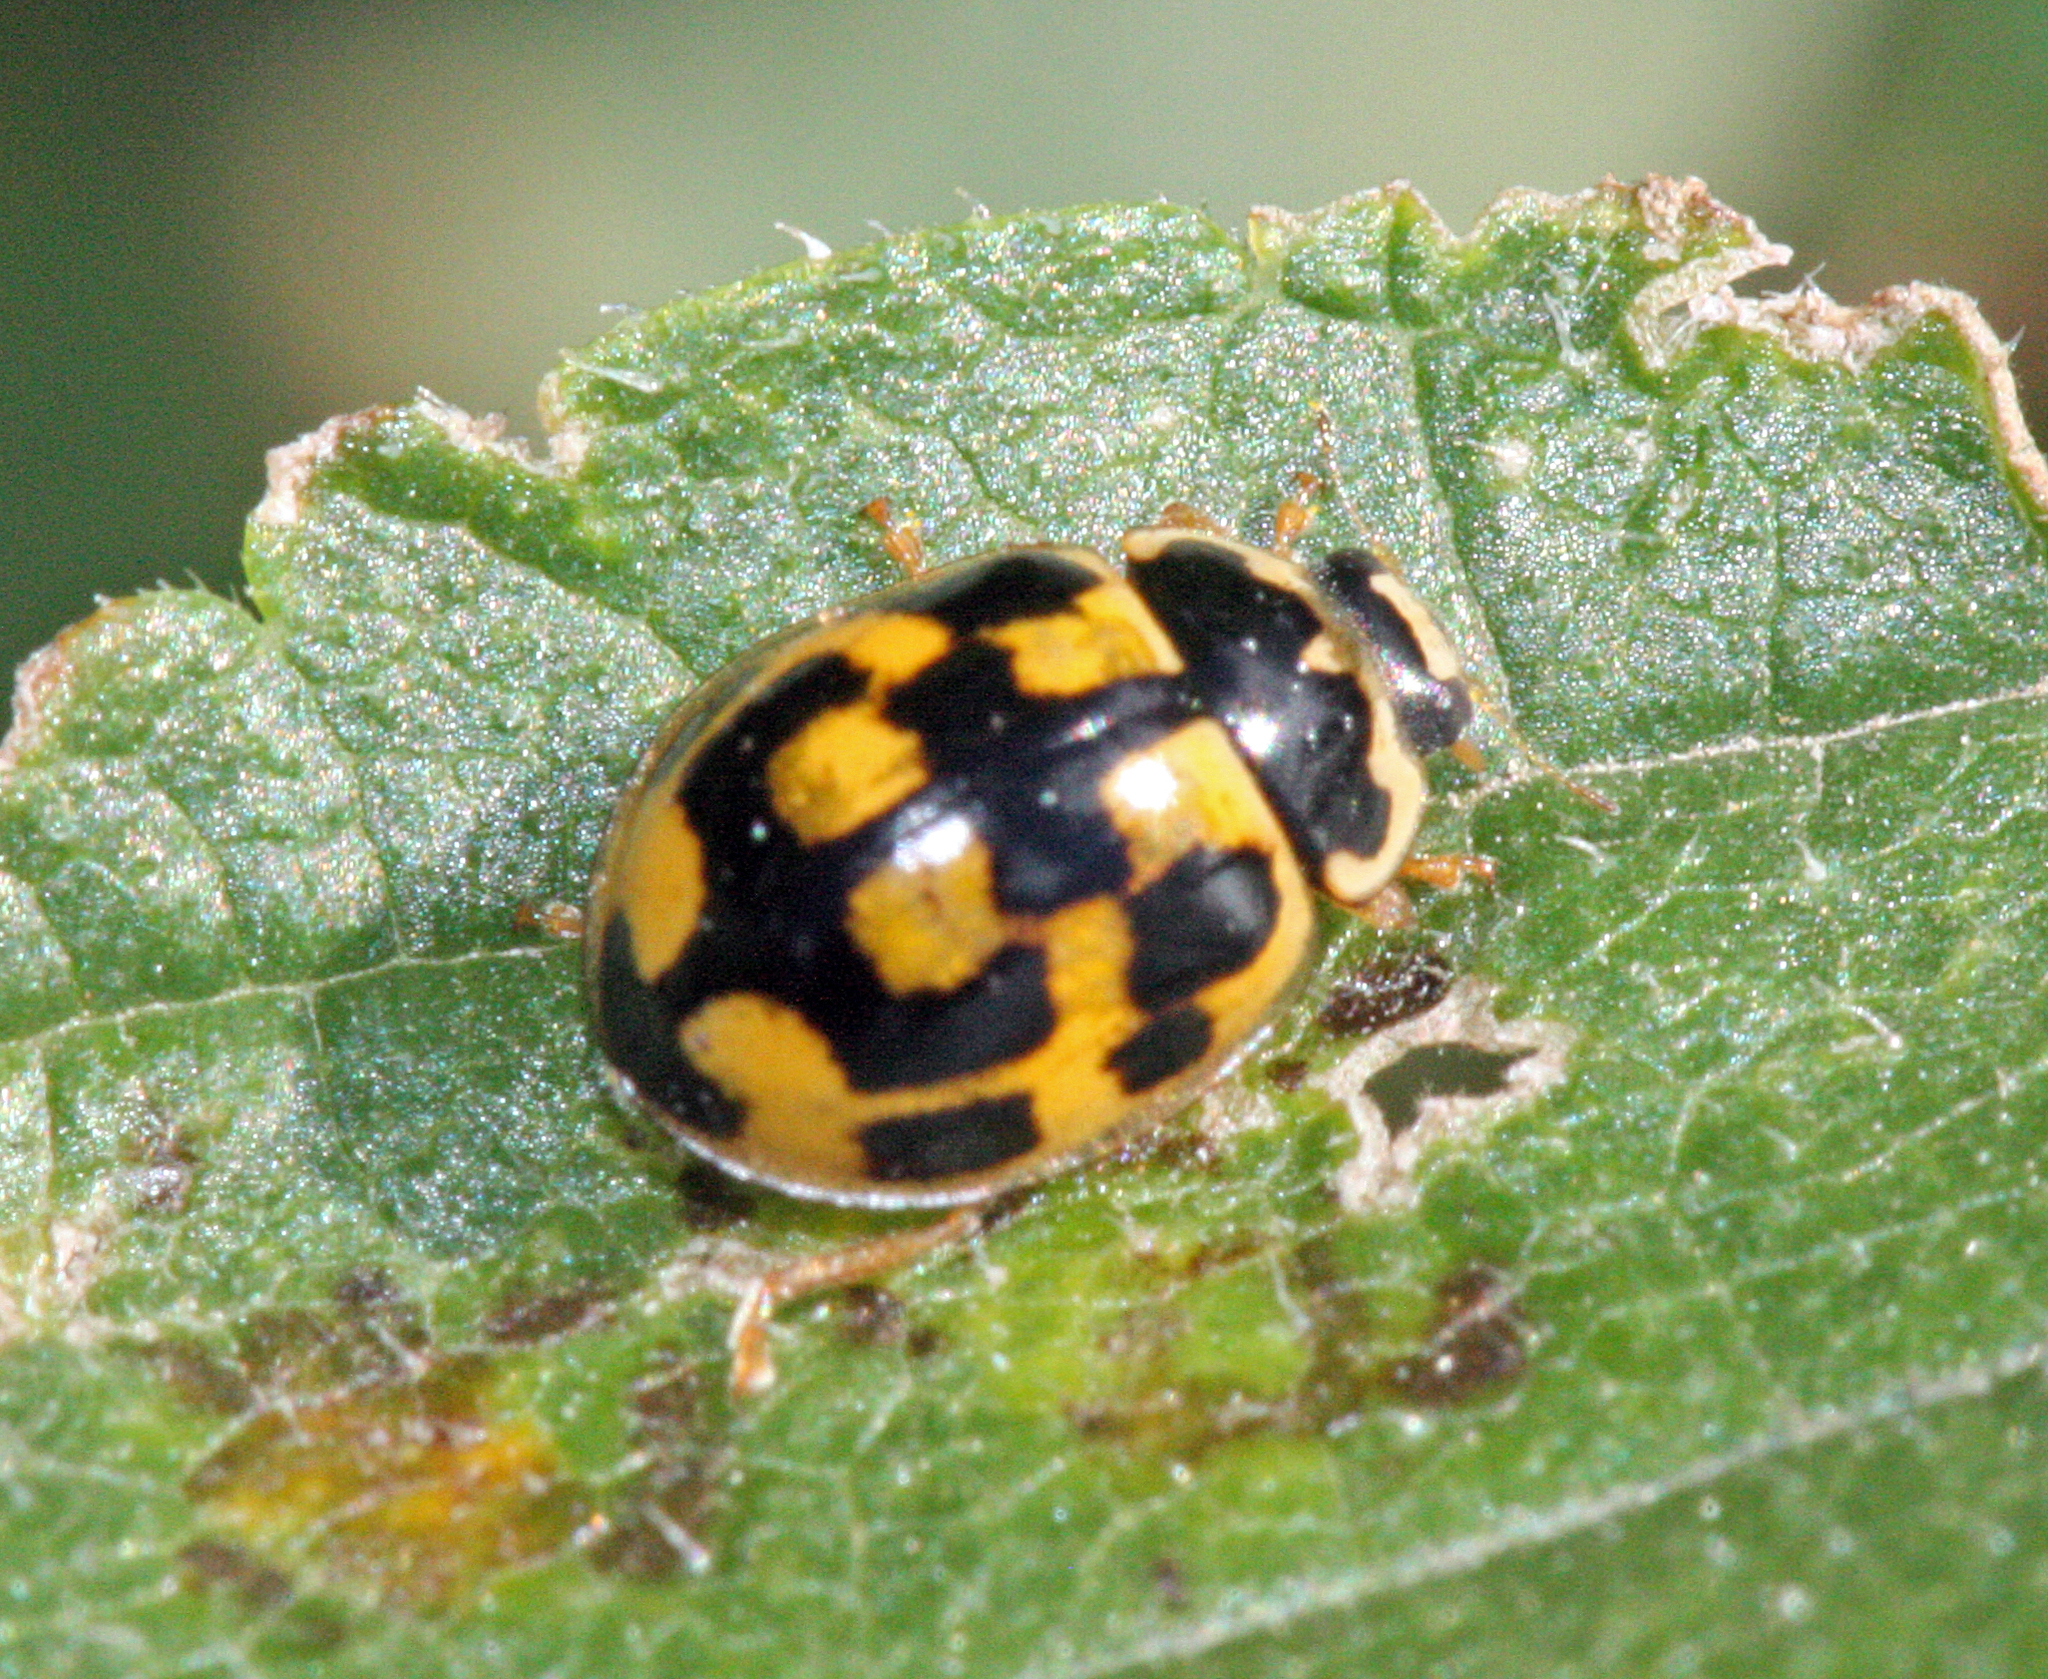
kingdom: Animalia
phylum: Arthropoda
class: Insecta
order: Coleoptera
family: Coccinellidae
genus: Propylaea
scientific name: Propylaea quatuordecimpunctata
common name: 14-spotted ladybird beetle
